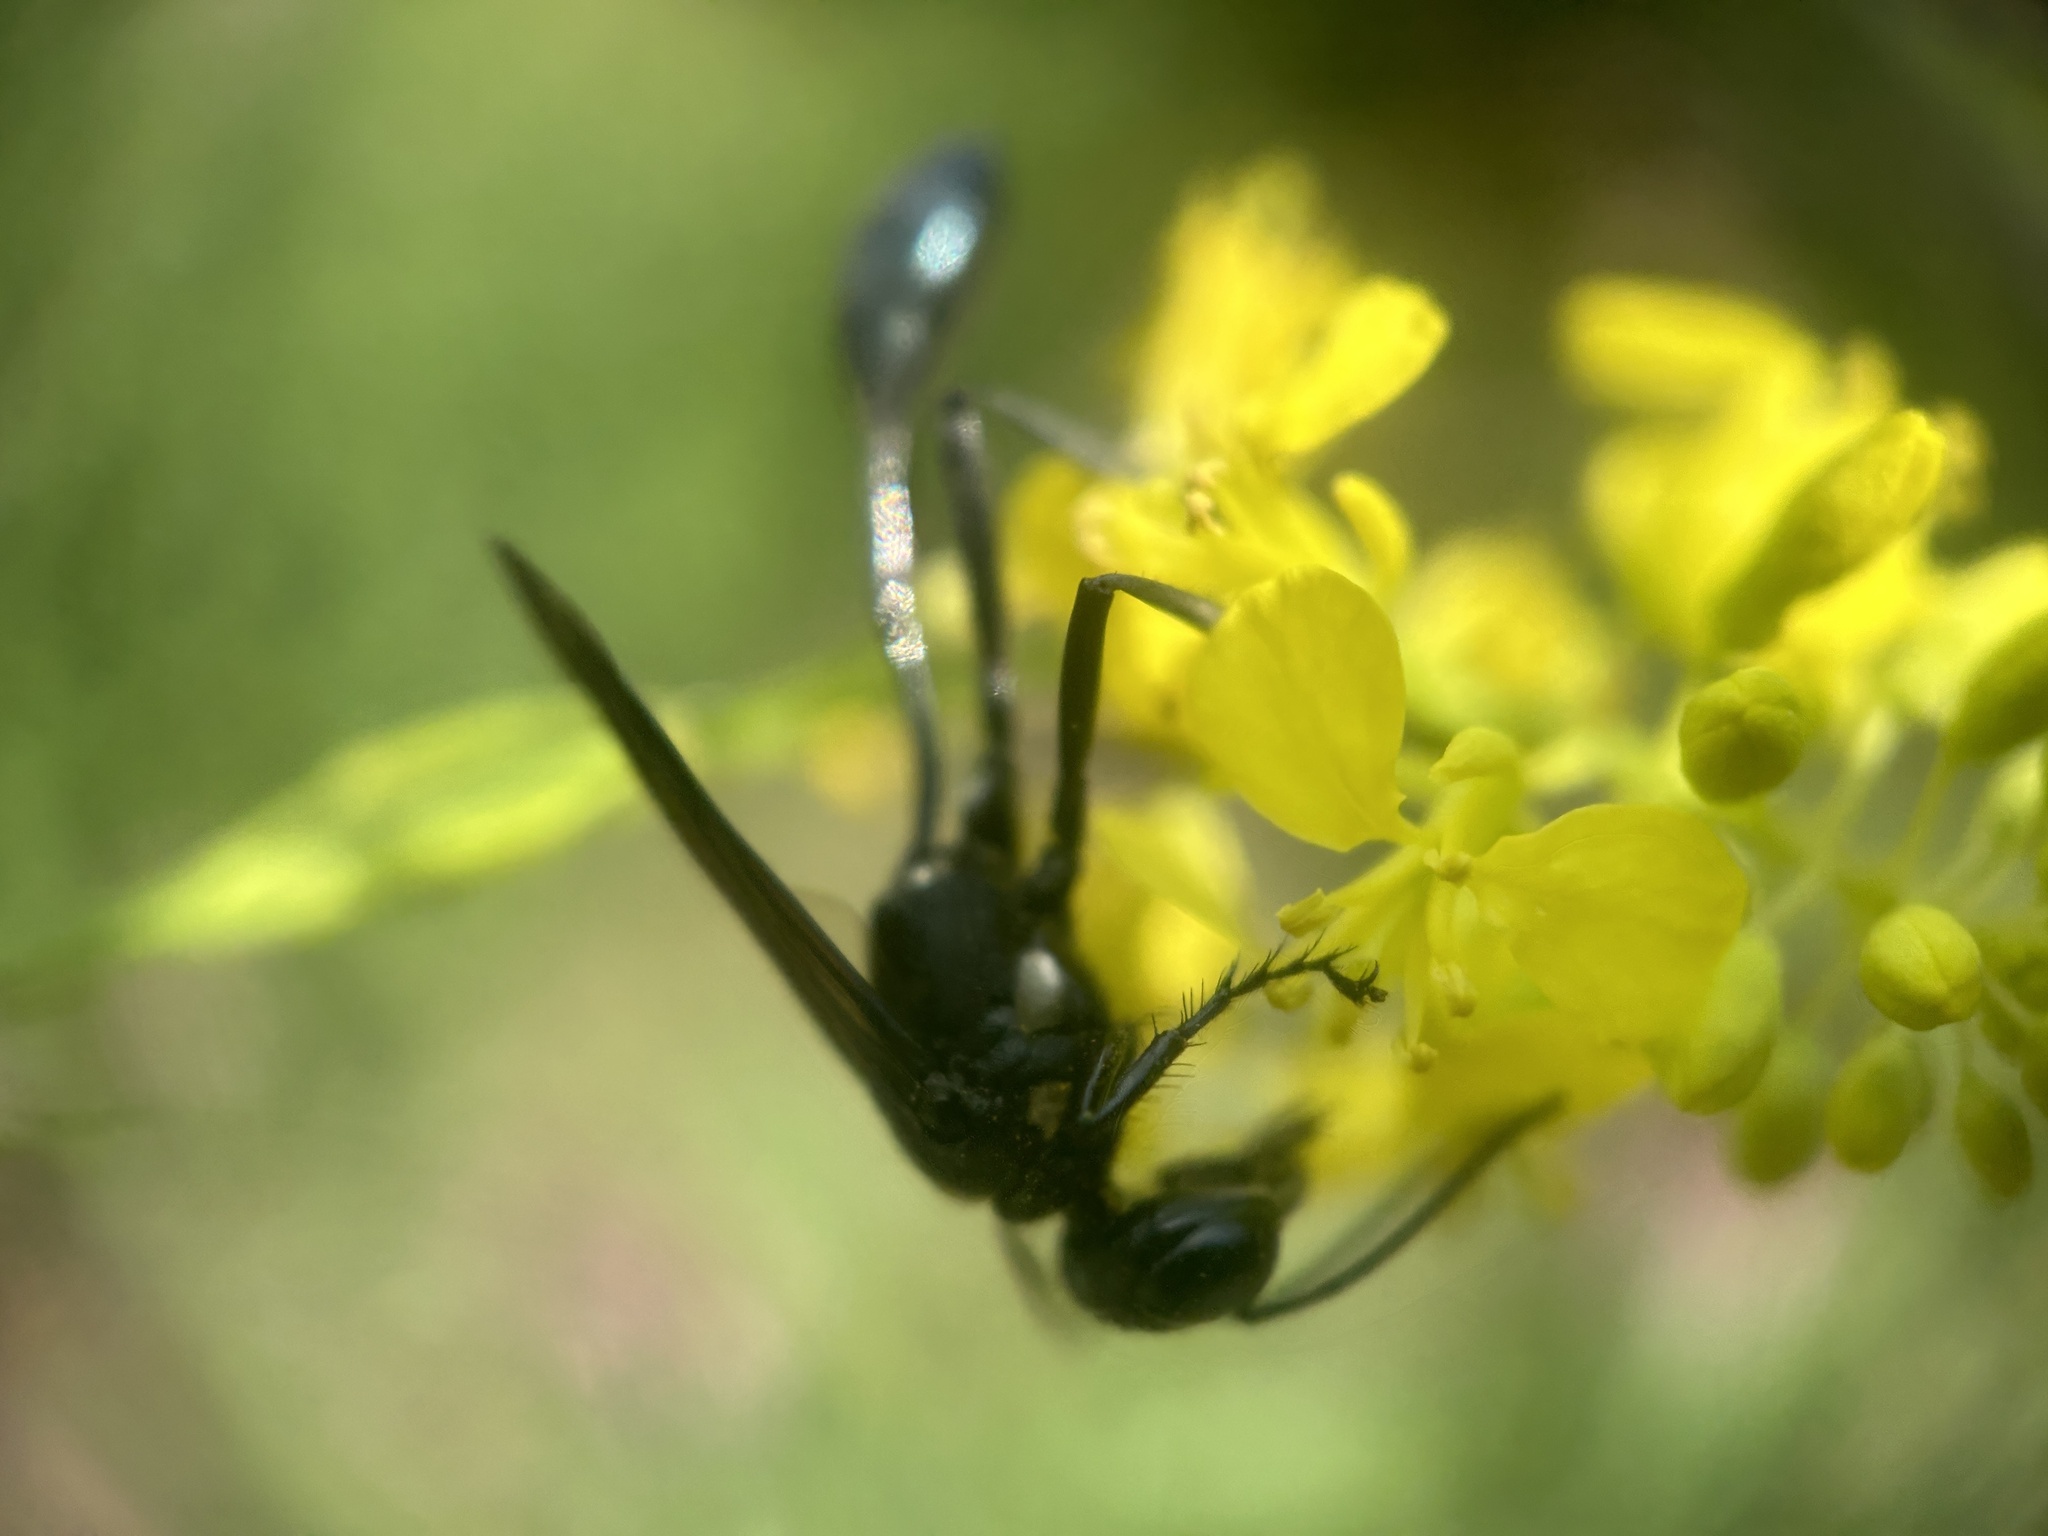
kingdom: Animalia
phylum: Arthropoda
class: Insecta
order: Hymenoptera
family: Sphecidae
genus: Eremnophila
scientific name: Eremnophila aureonotata
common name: Gold-marked thread-waisted wasp
